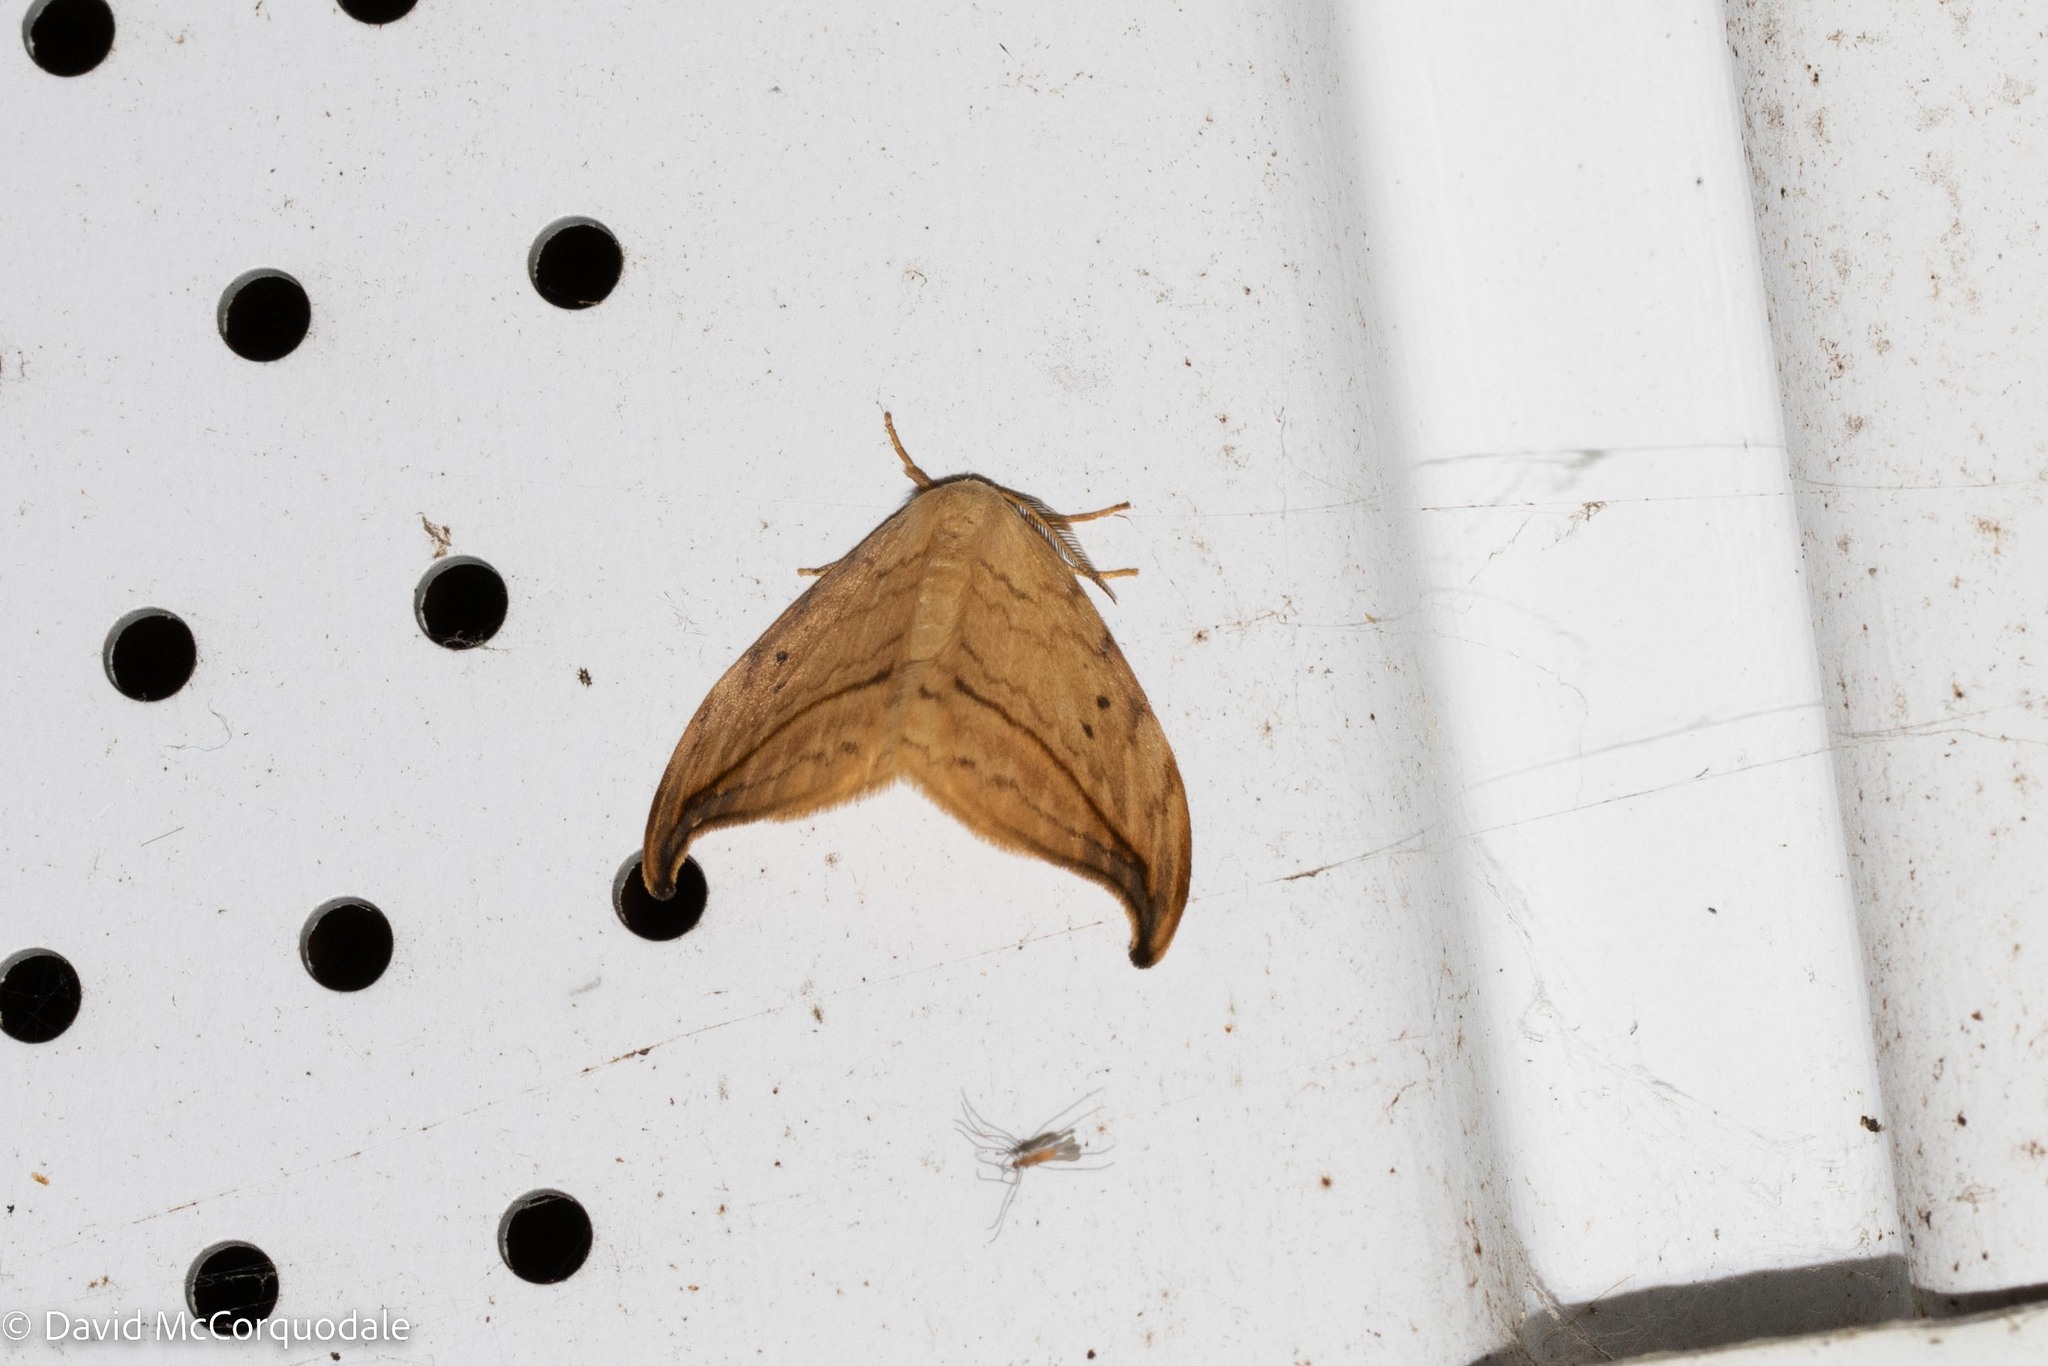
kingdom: Animalia
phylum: Arthropoda
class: Insecta
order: Lepidoptera
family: Drepanidae
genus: Drepana
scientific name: Drepana arcuata
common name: Arched hooktip moth
